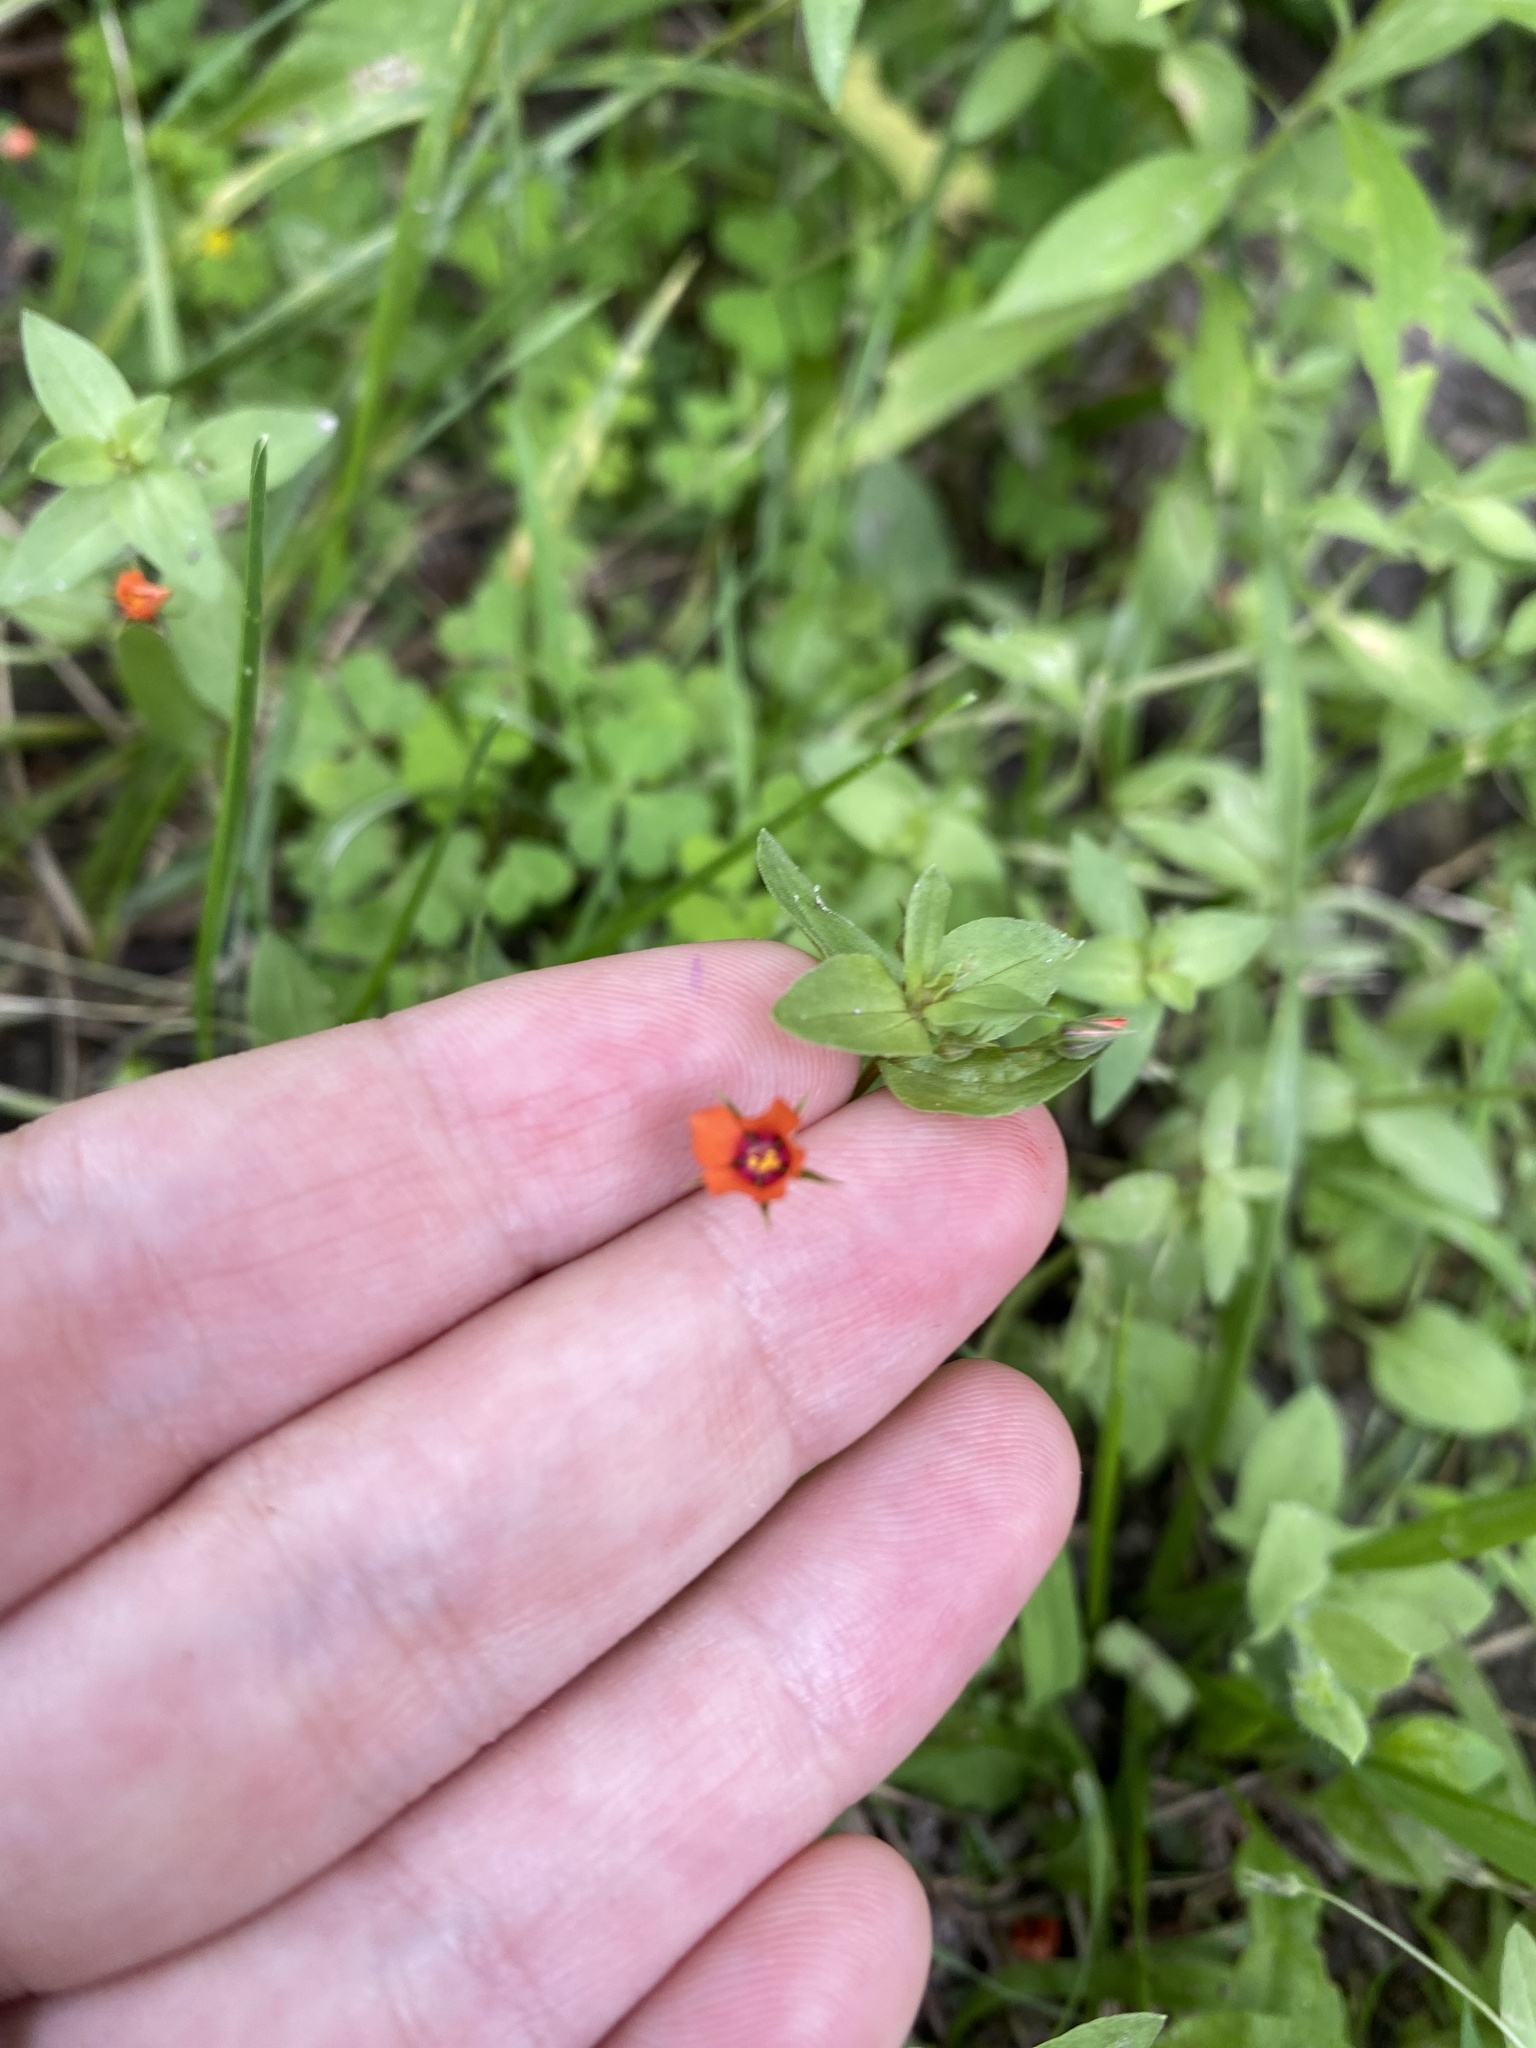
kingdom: Plantae
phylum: Tracheophyta
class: Magnoliopsida
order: Ericales
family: Primulaceae
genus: Lysimachia
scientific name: Lysimachia arvensis
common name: Scarlet pimpernel
